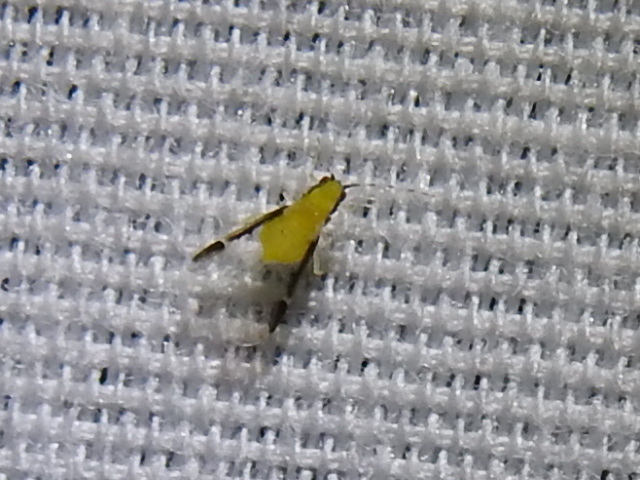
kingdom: Animalia
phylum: Arthropoda
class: Insecta
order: Hemiptera
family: Aphididae
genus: Monellia
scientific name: Monellia caryella
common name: Blackmargined aphid
